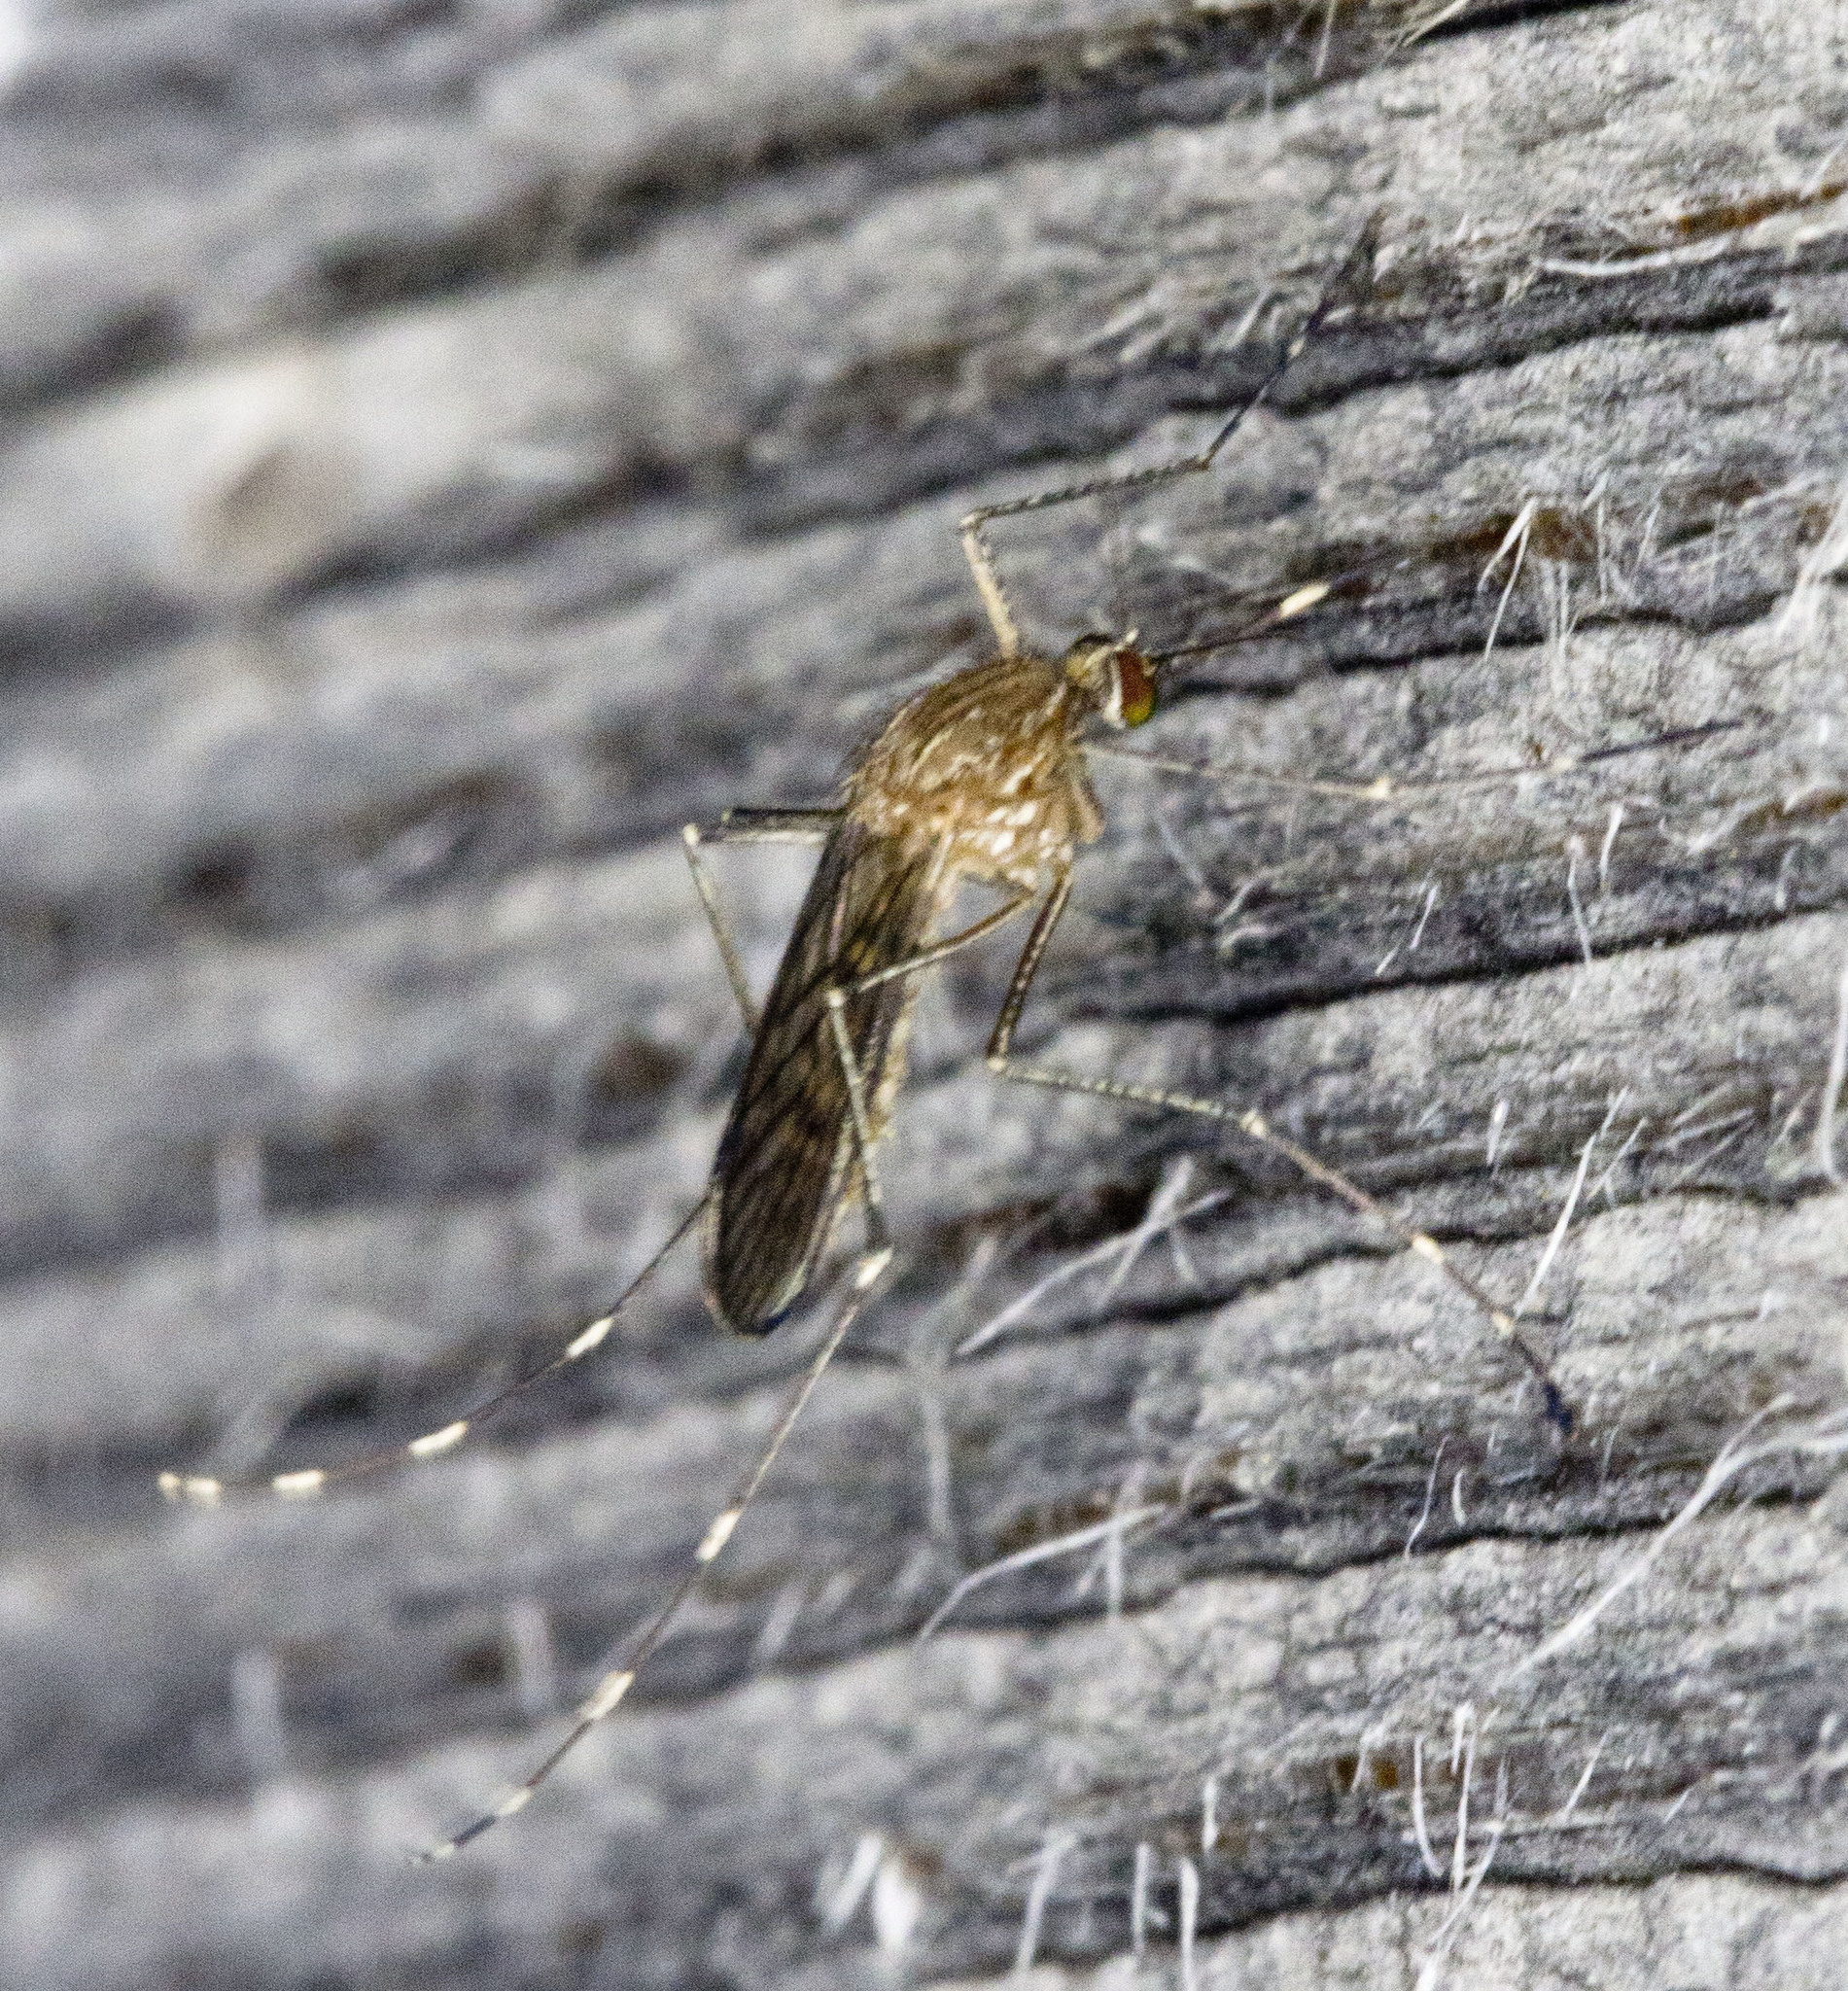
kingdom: Animalia
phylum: Arthropoda
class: Insecta
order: Diptera
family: Culicidae
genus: Culex
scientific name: Culex tarsalis
